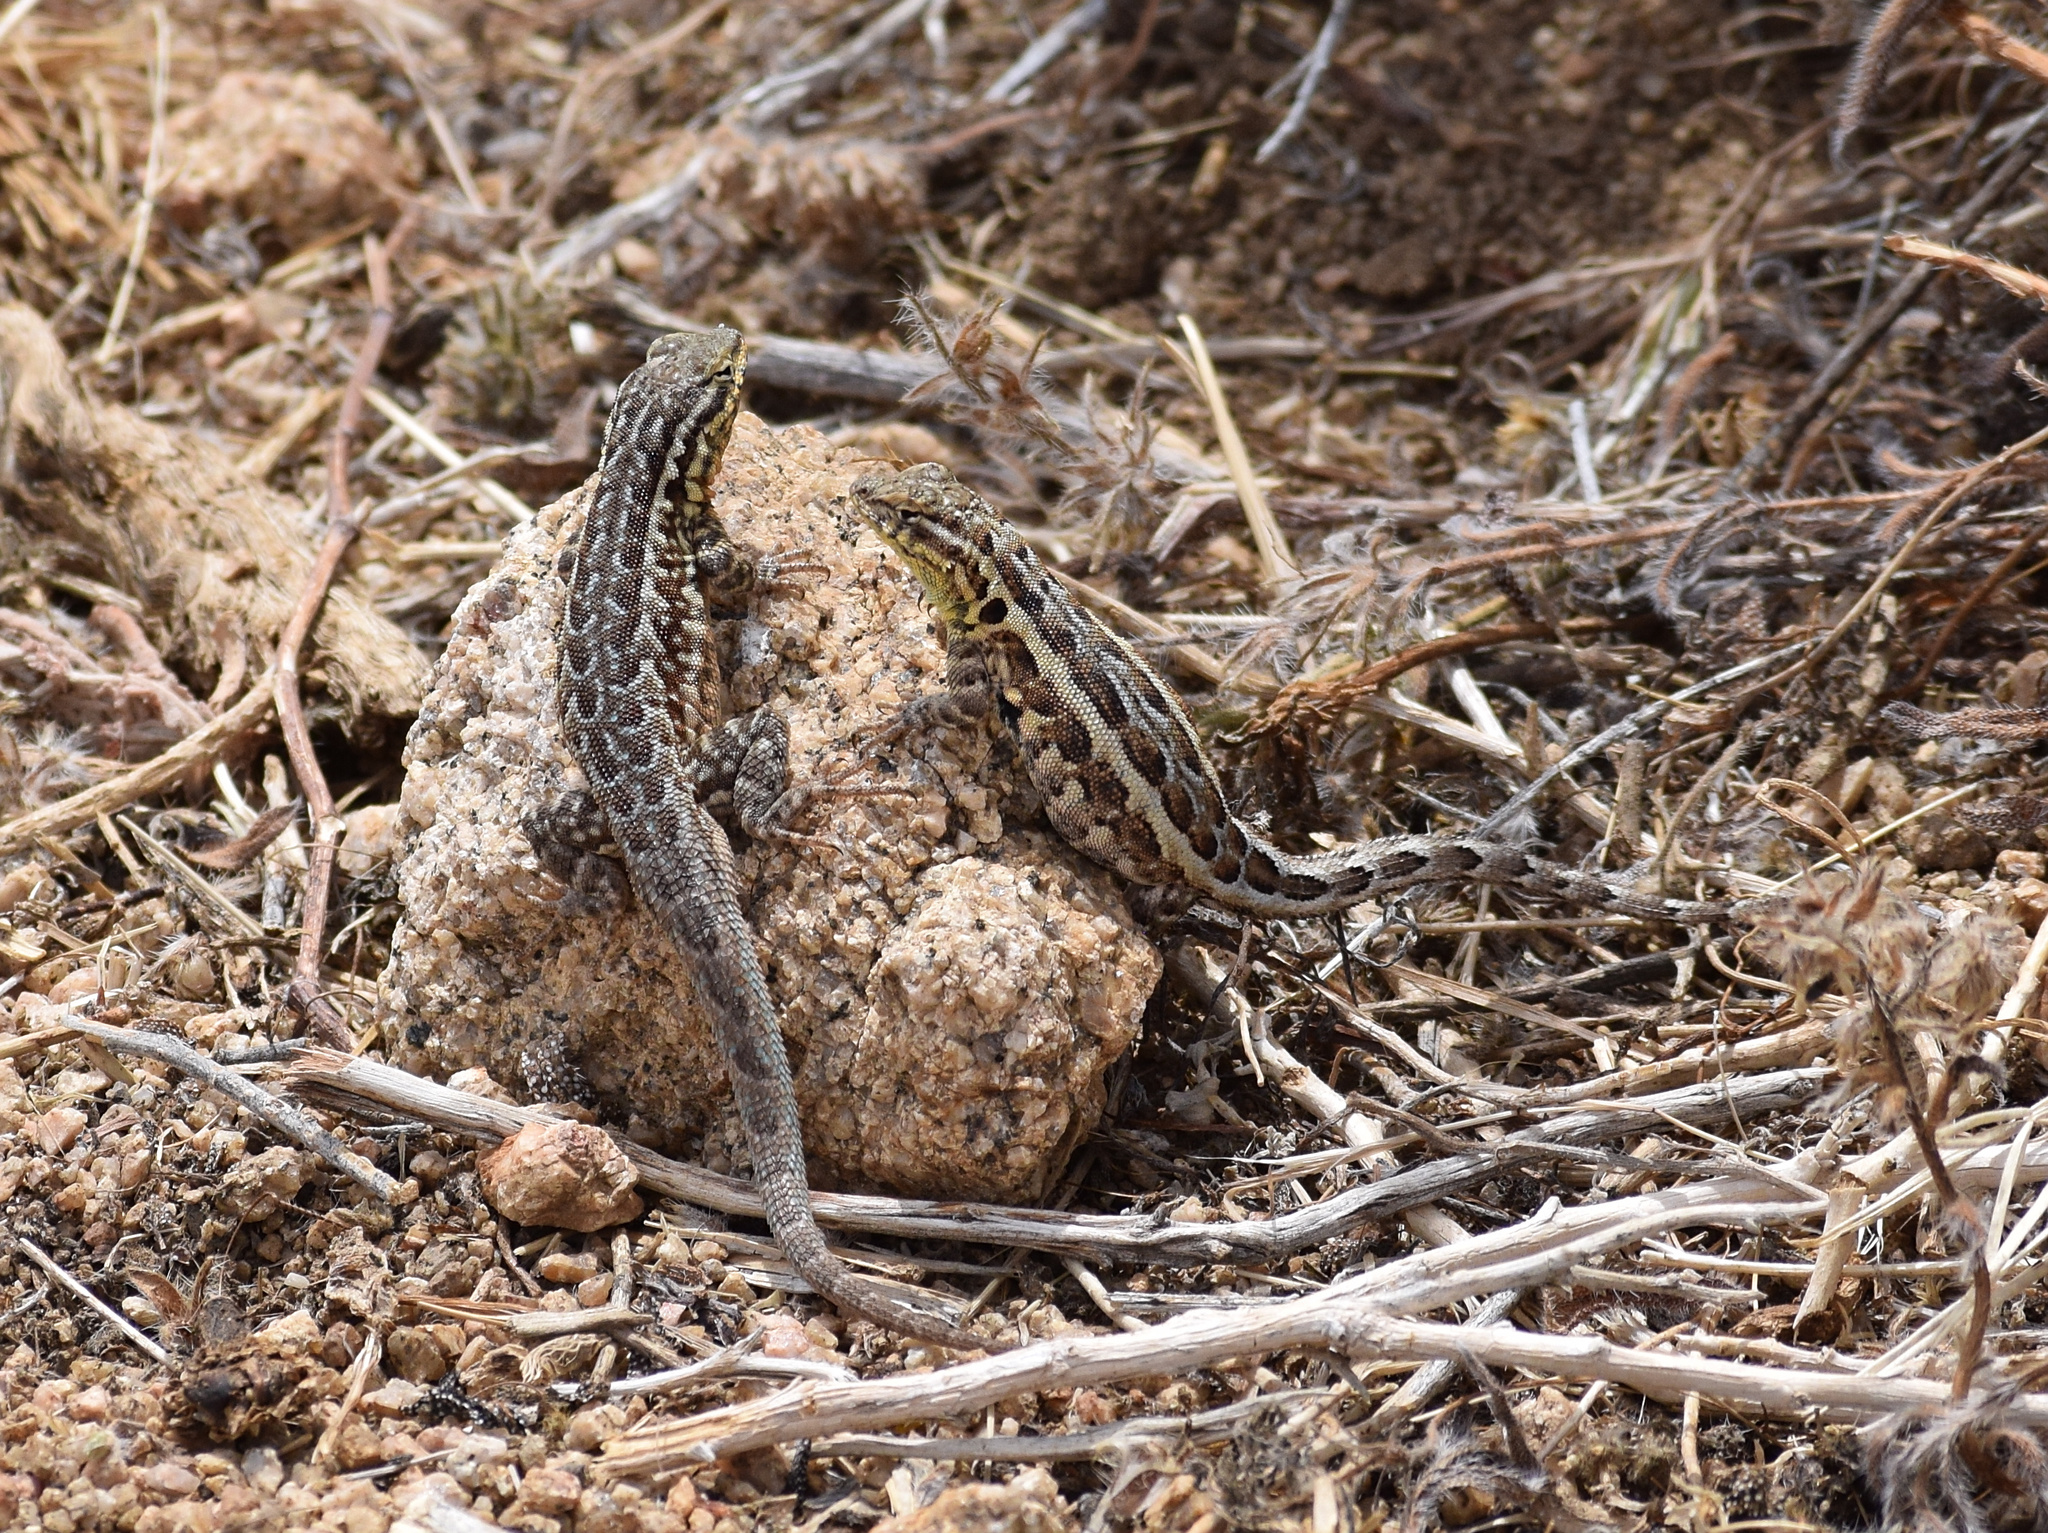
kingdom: Animalia
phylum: Chordata
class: Squamata
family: Phrynosomatidae
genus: Uta
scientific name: Uta stansburiana
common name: Side-blotched lizard
